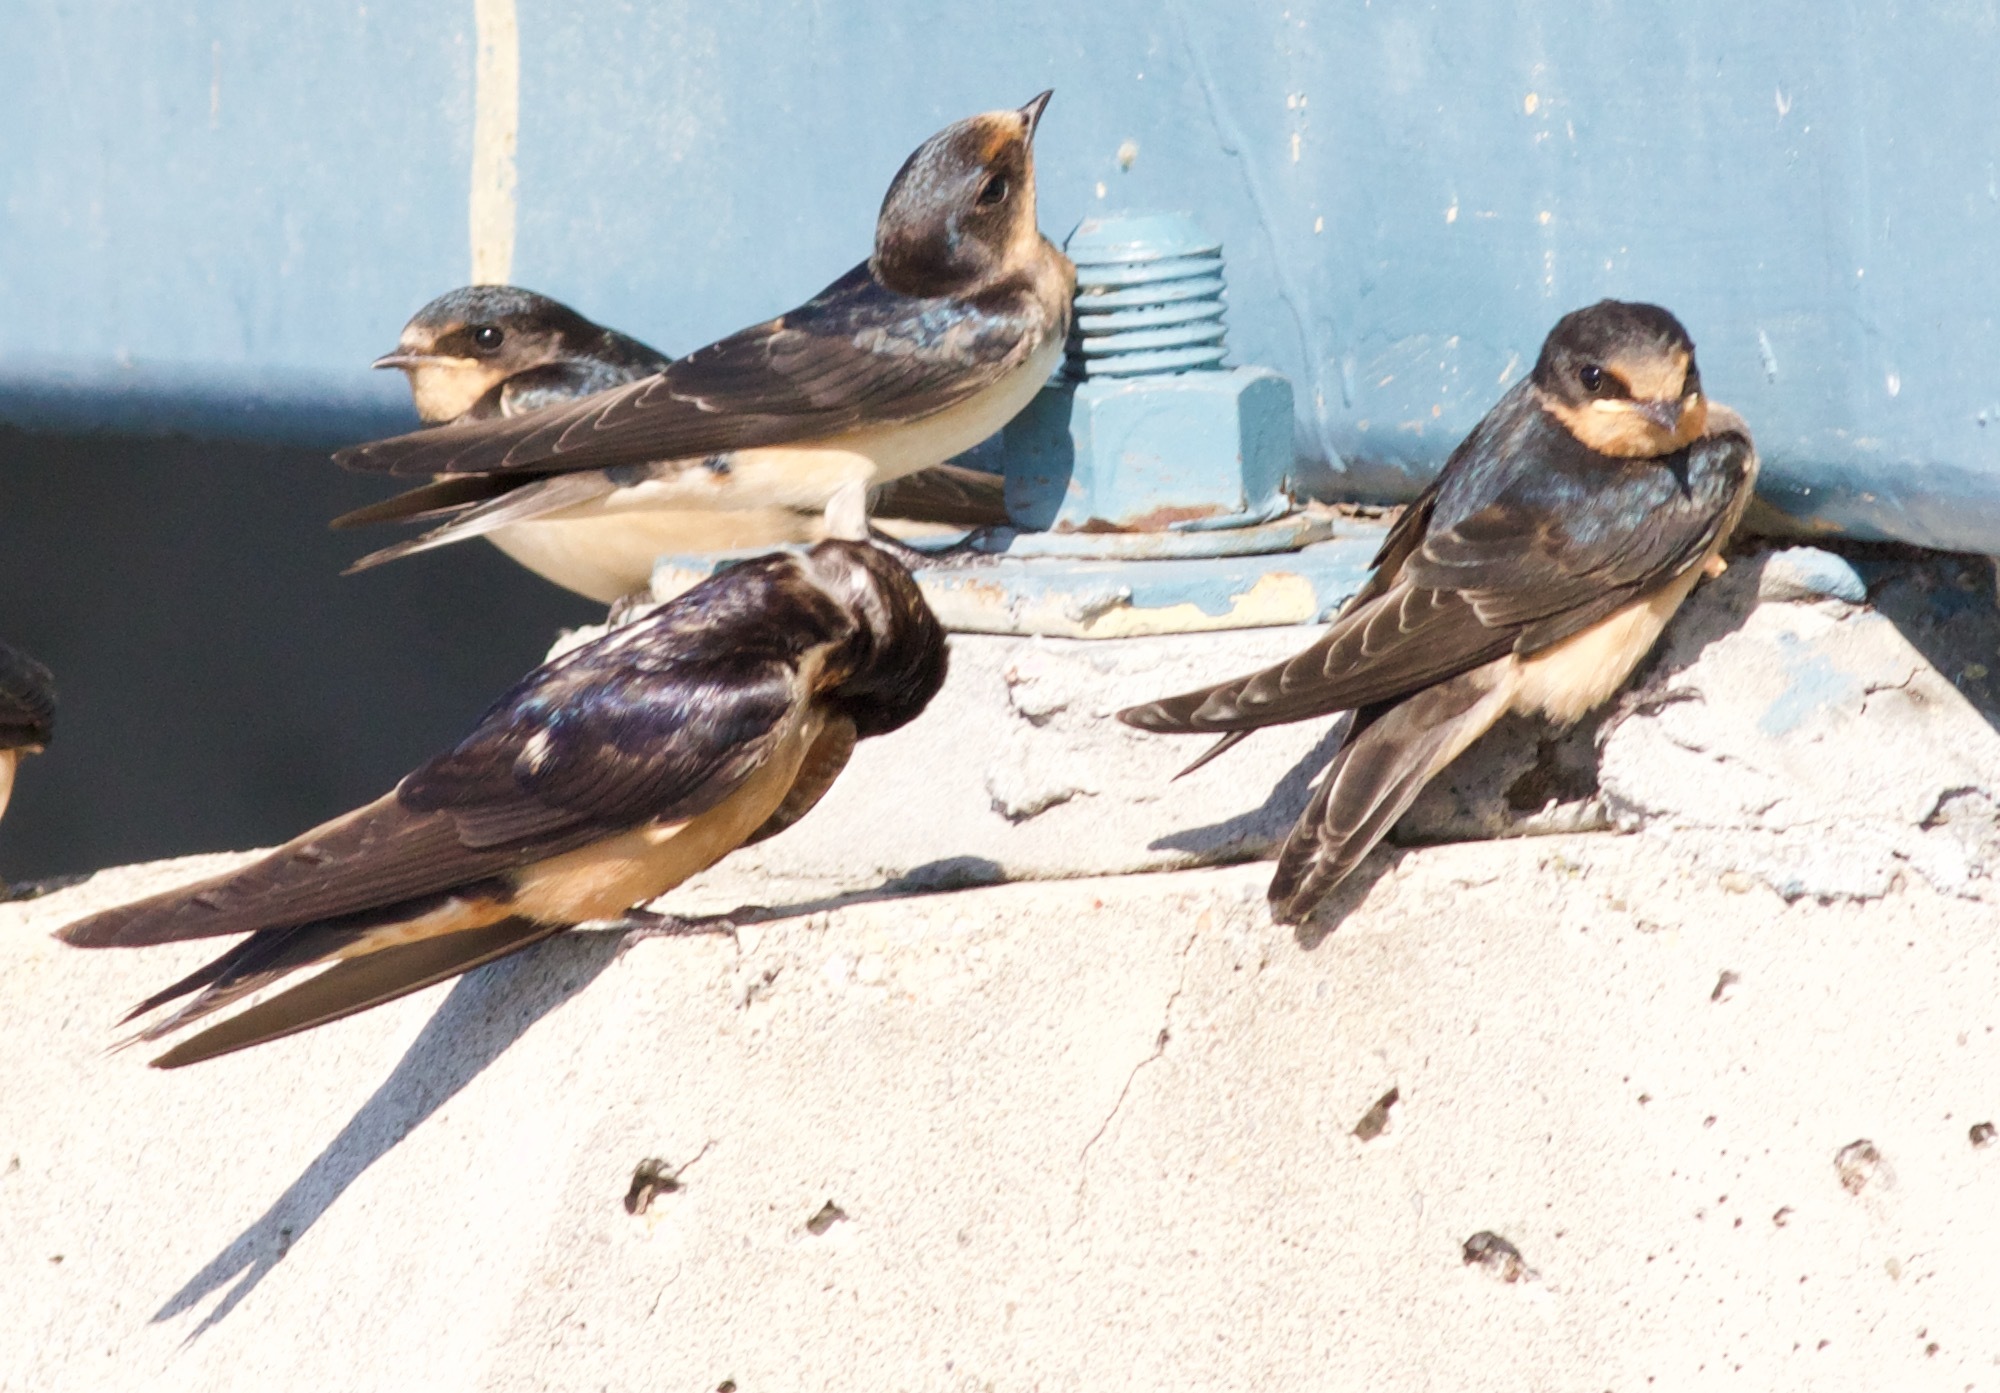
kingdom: Animalia
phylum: Chordata
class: Aves
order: Passeriformes
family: Hirundinidae
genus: Hirundo
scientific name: Hirundo rustica
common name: Barn swallow
